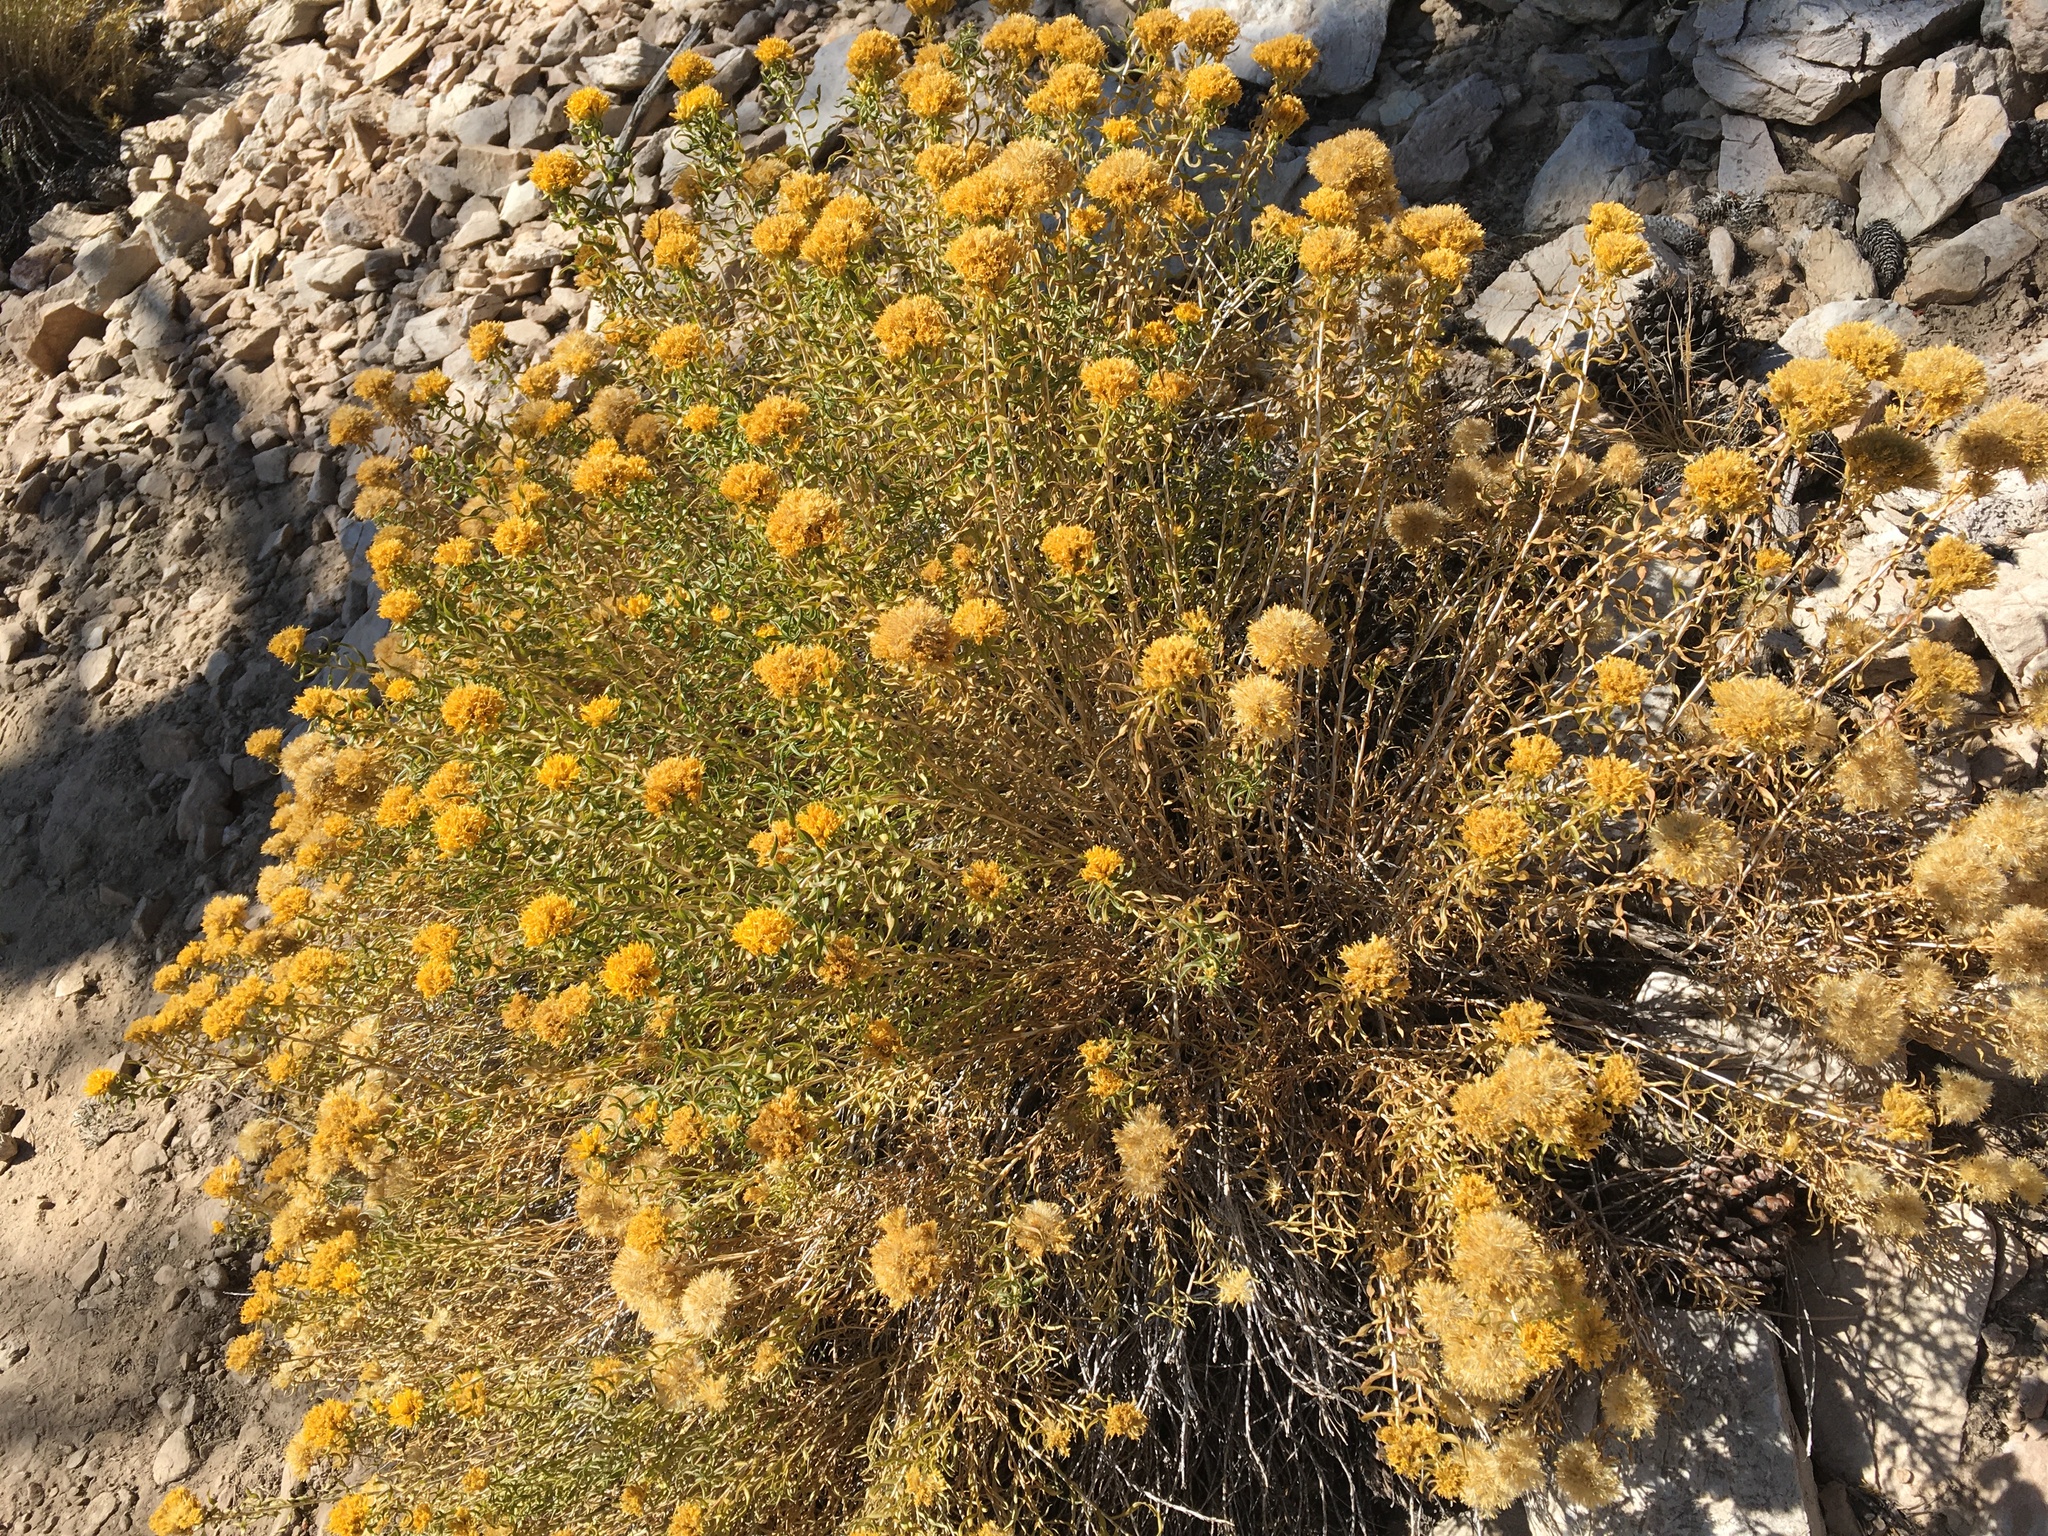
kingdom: Plantae
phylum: Tracheophyta
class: Magnoliopsida
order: Asterales
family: Asteraceae
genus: Chrysothamnus
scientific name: Chrysothamnus viscidiflorus
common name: Yellow rabbitbrush
